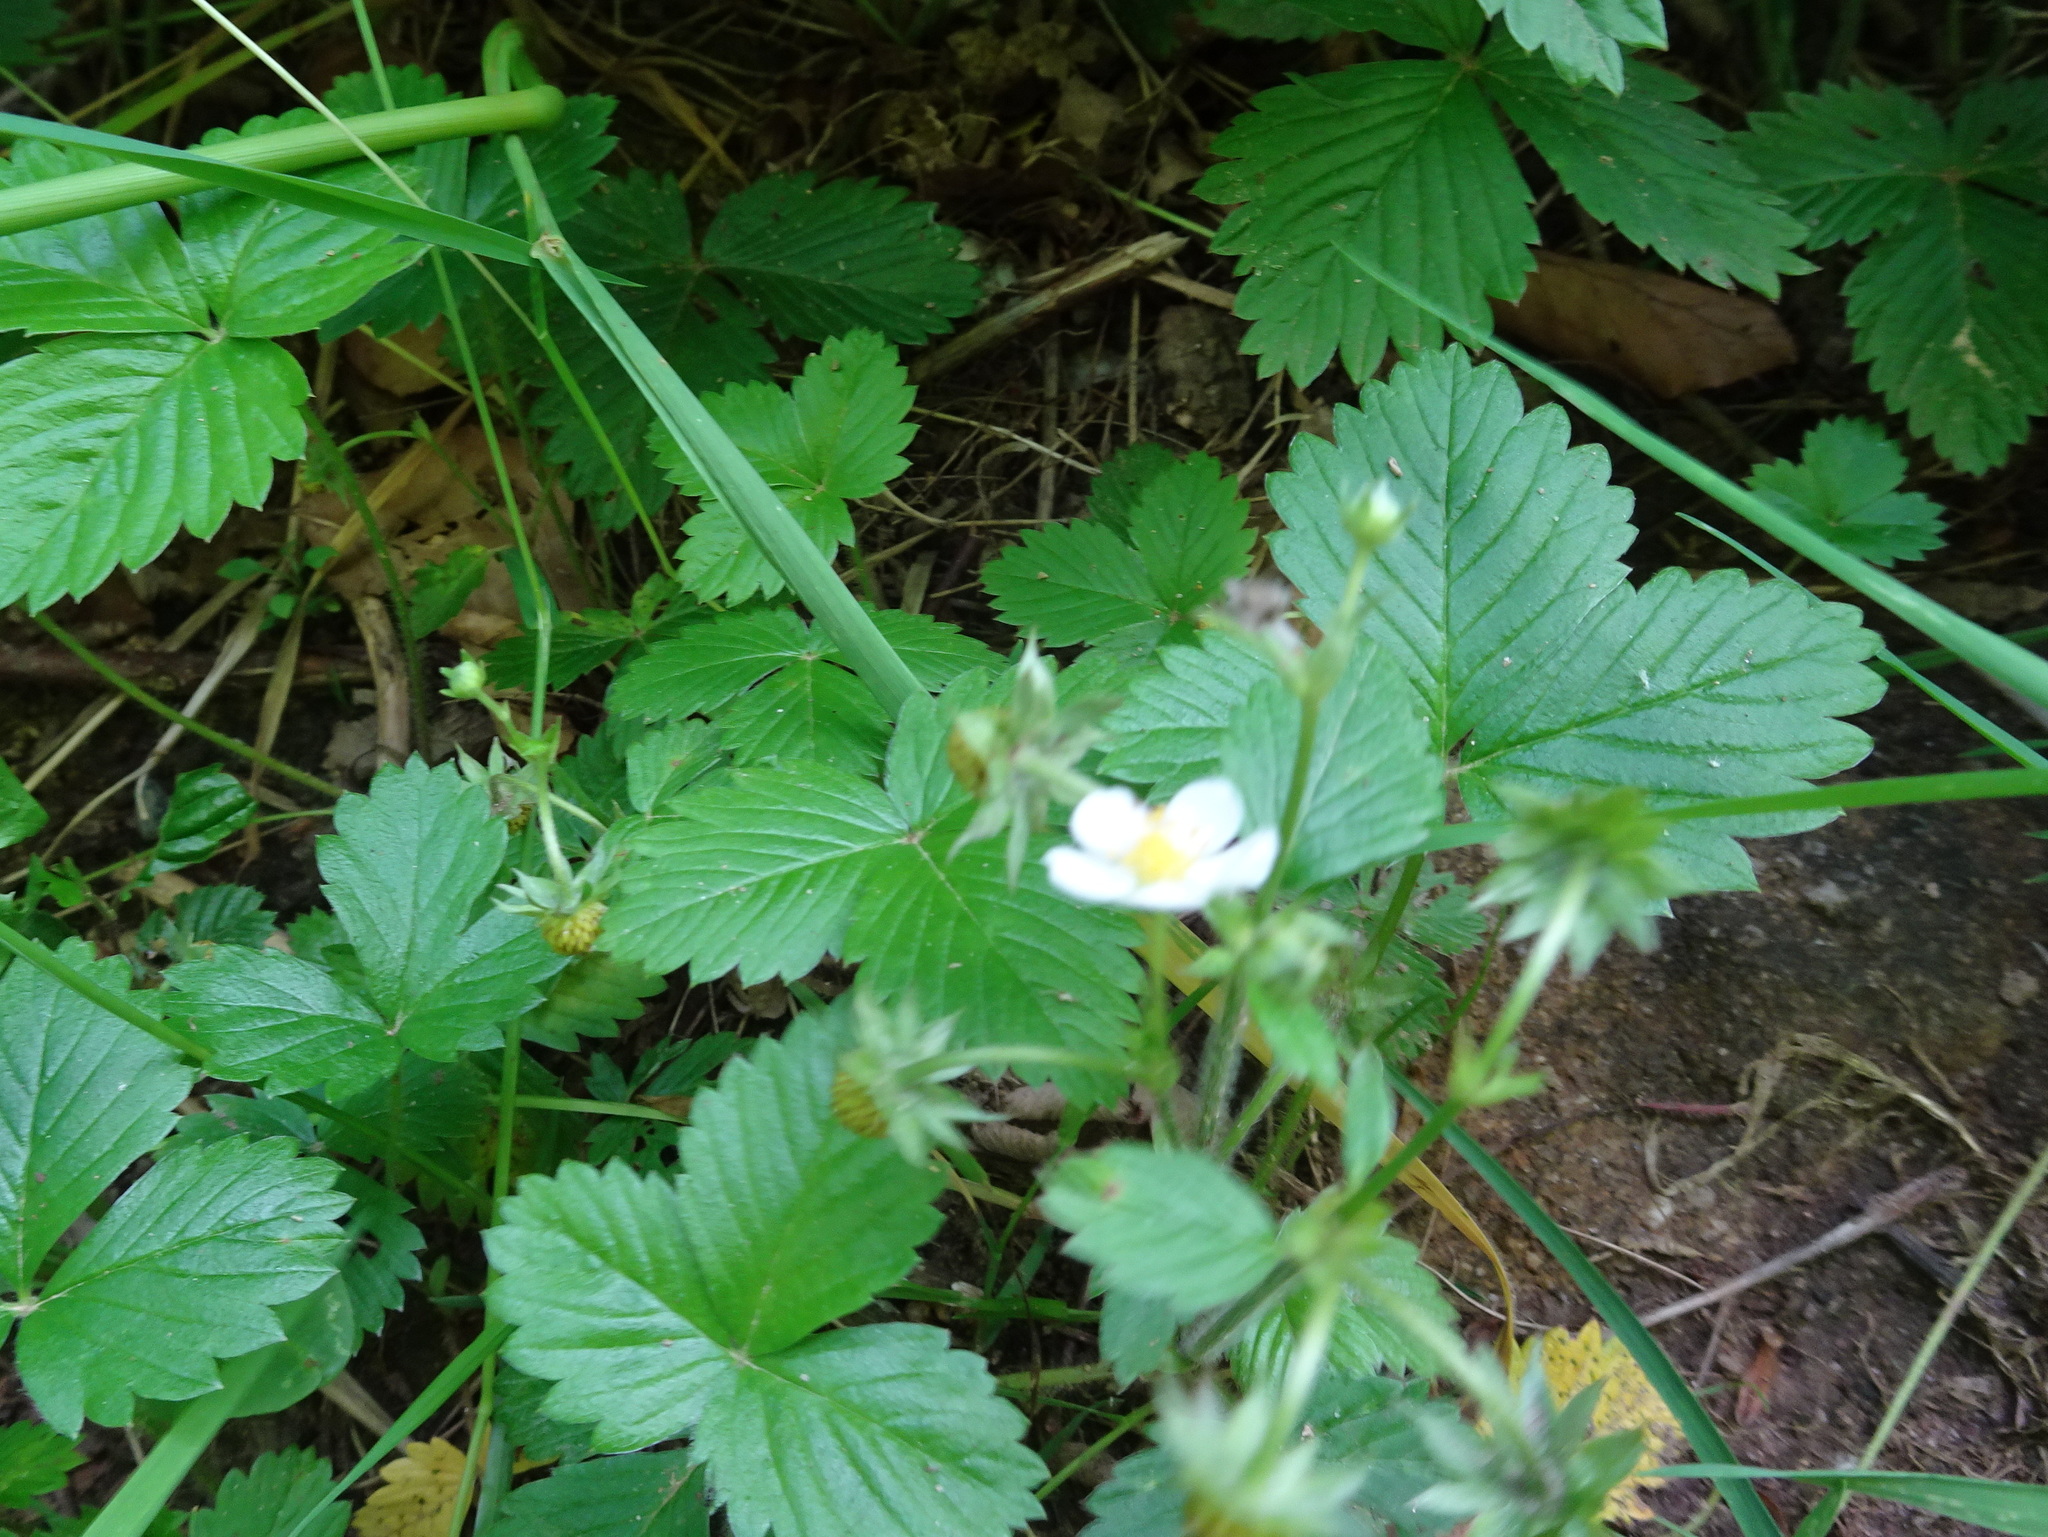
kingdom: Plantae
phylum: Tracheophyta
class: Magnoliopsida
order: Rosales
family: Rosaceae
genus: Fragaria
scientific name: Fragaria vesca
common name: Wild strawberry
